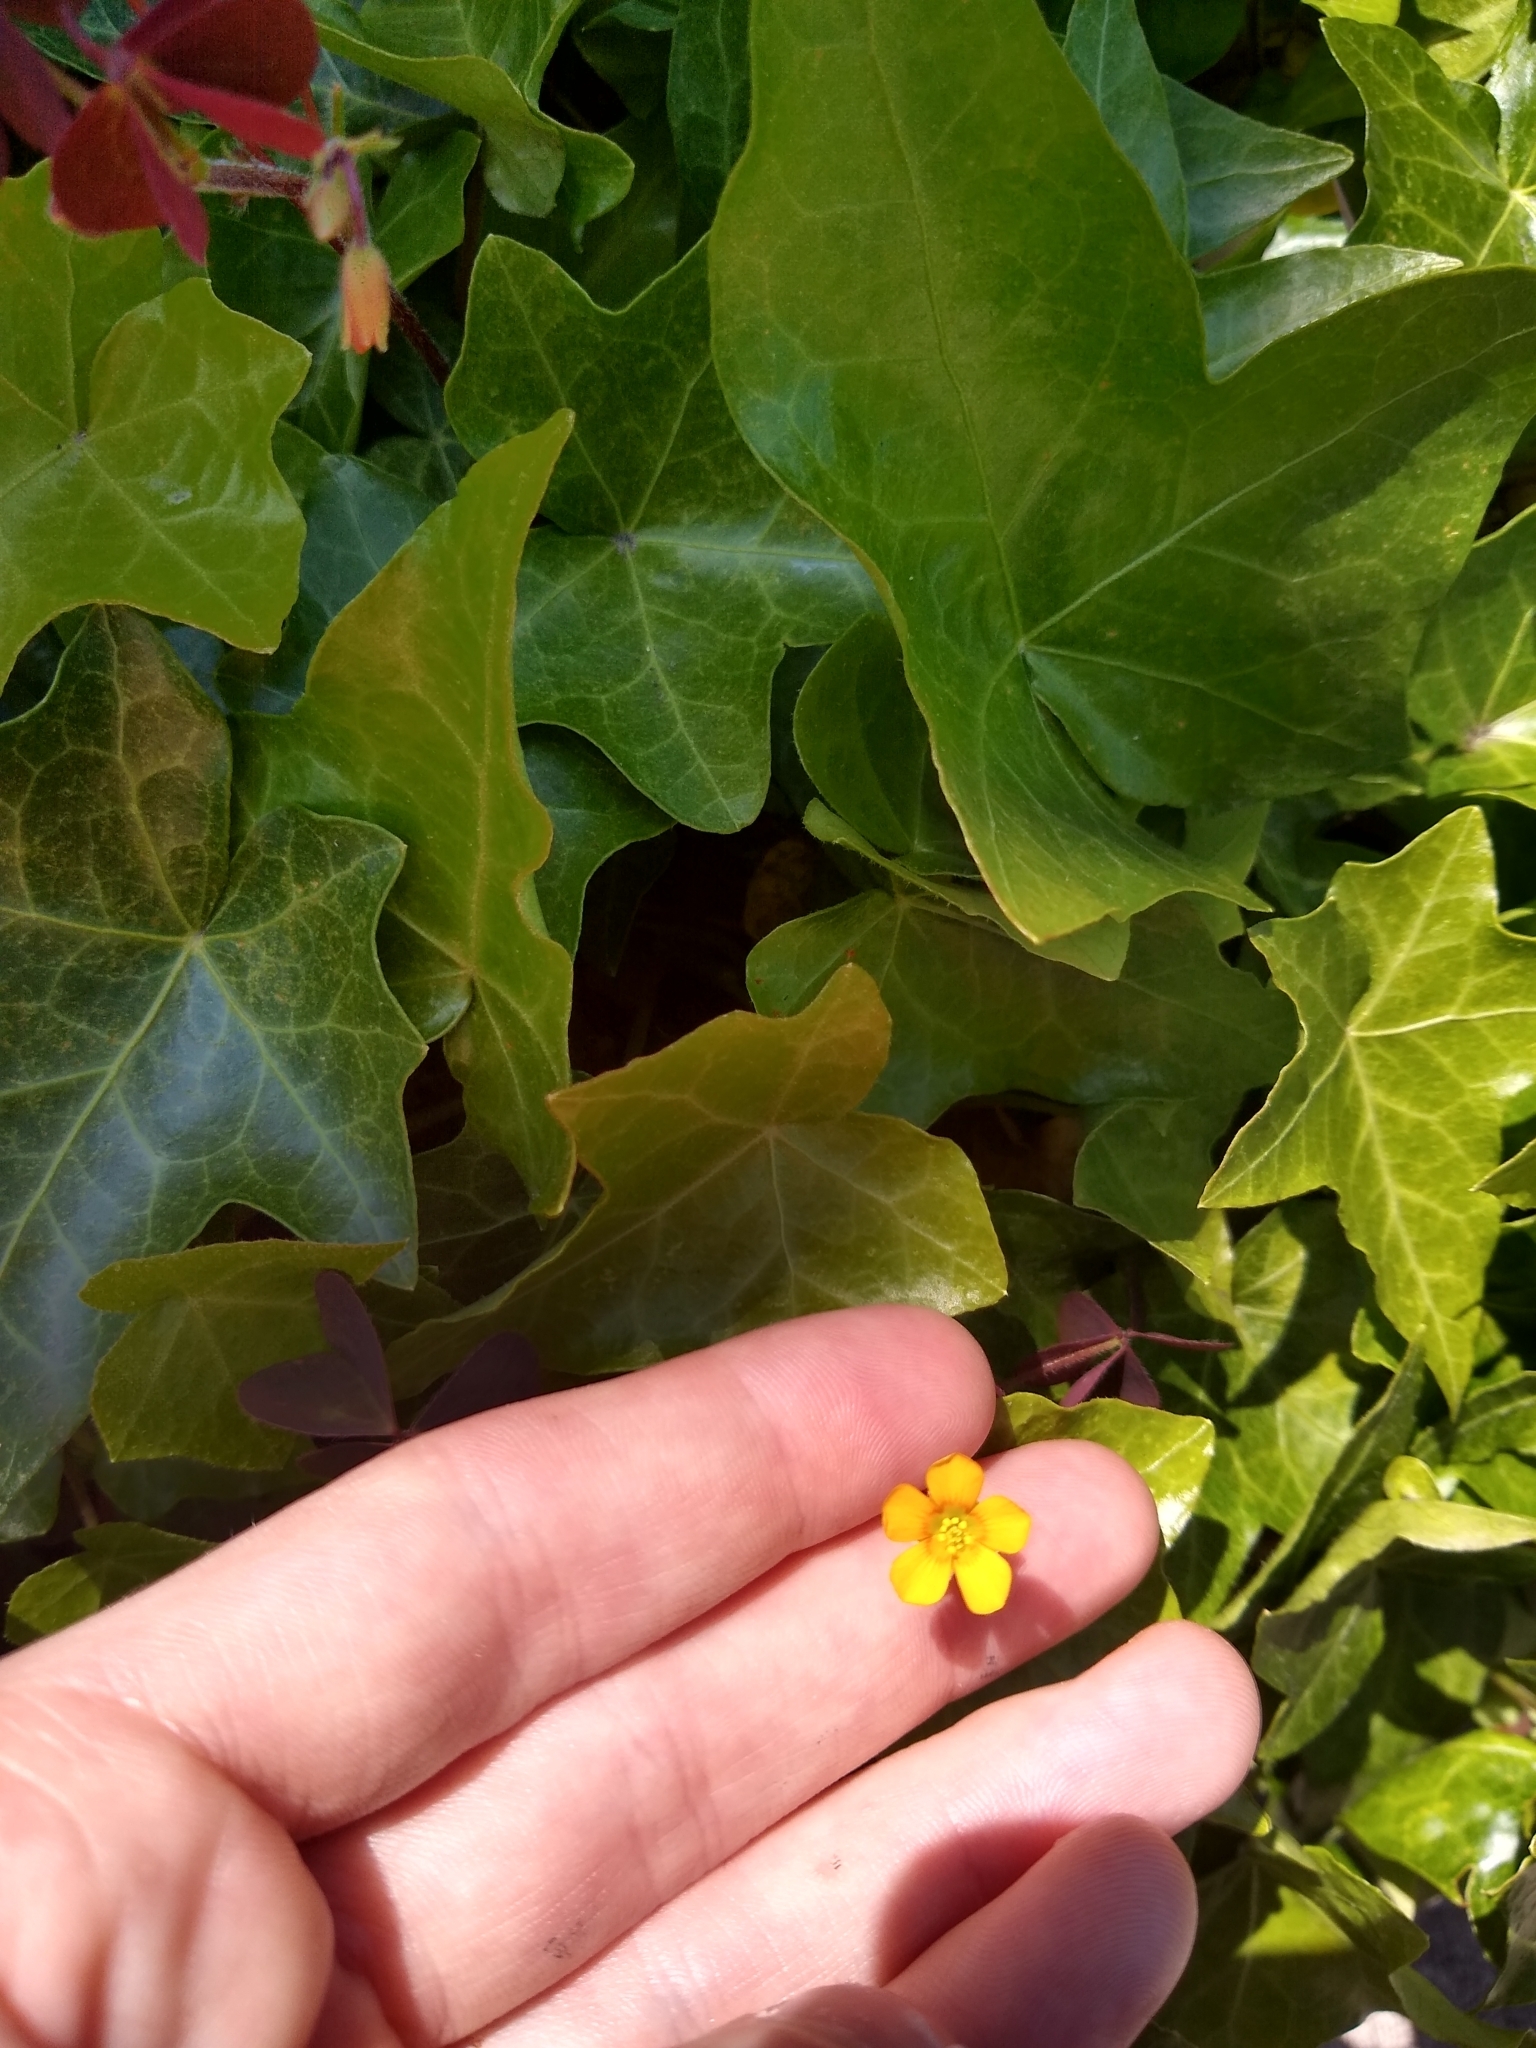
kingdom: Plantae
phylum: Tracheophyta
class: Magnoliopsida
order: Oxalidales
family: Oxalidaceae
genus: Oxalis
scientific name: Oxalis corniculata
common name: Procumbent yellow-sorrel
